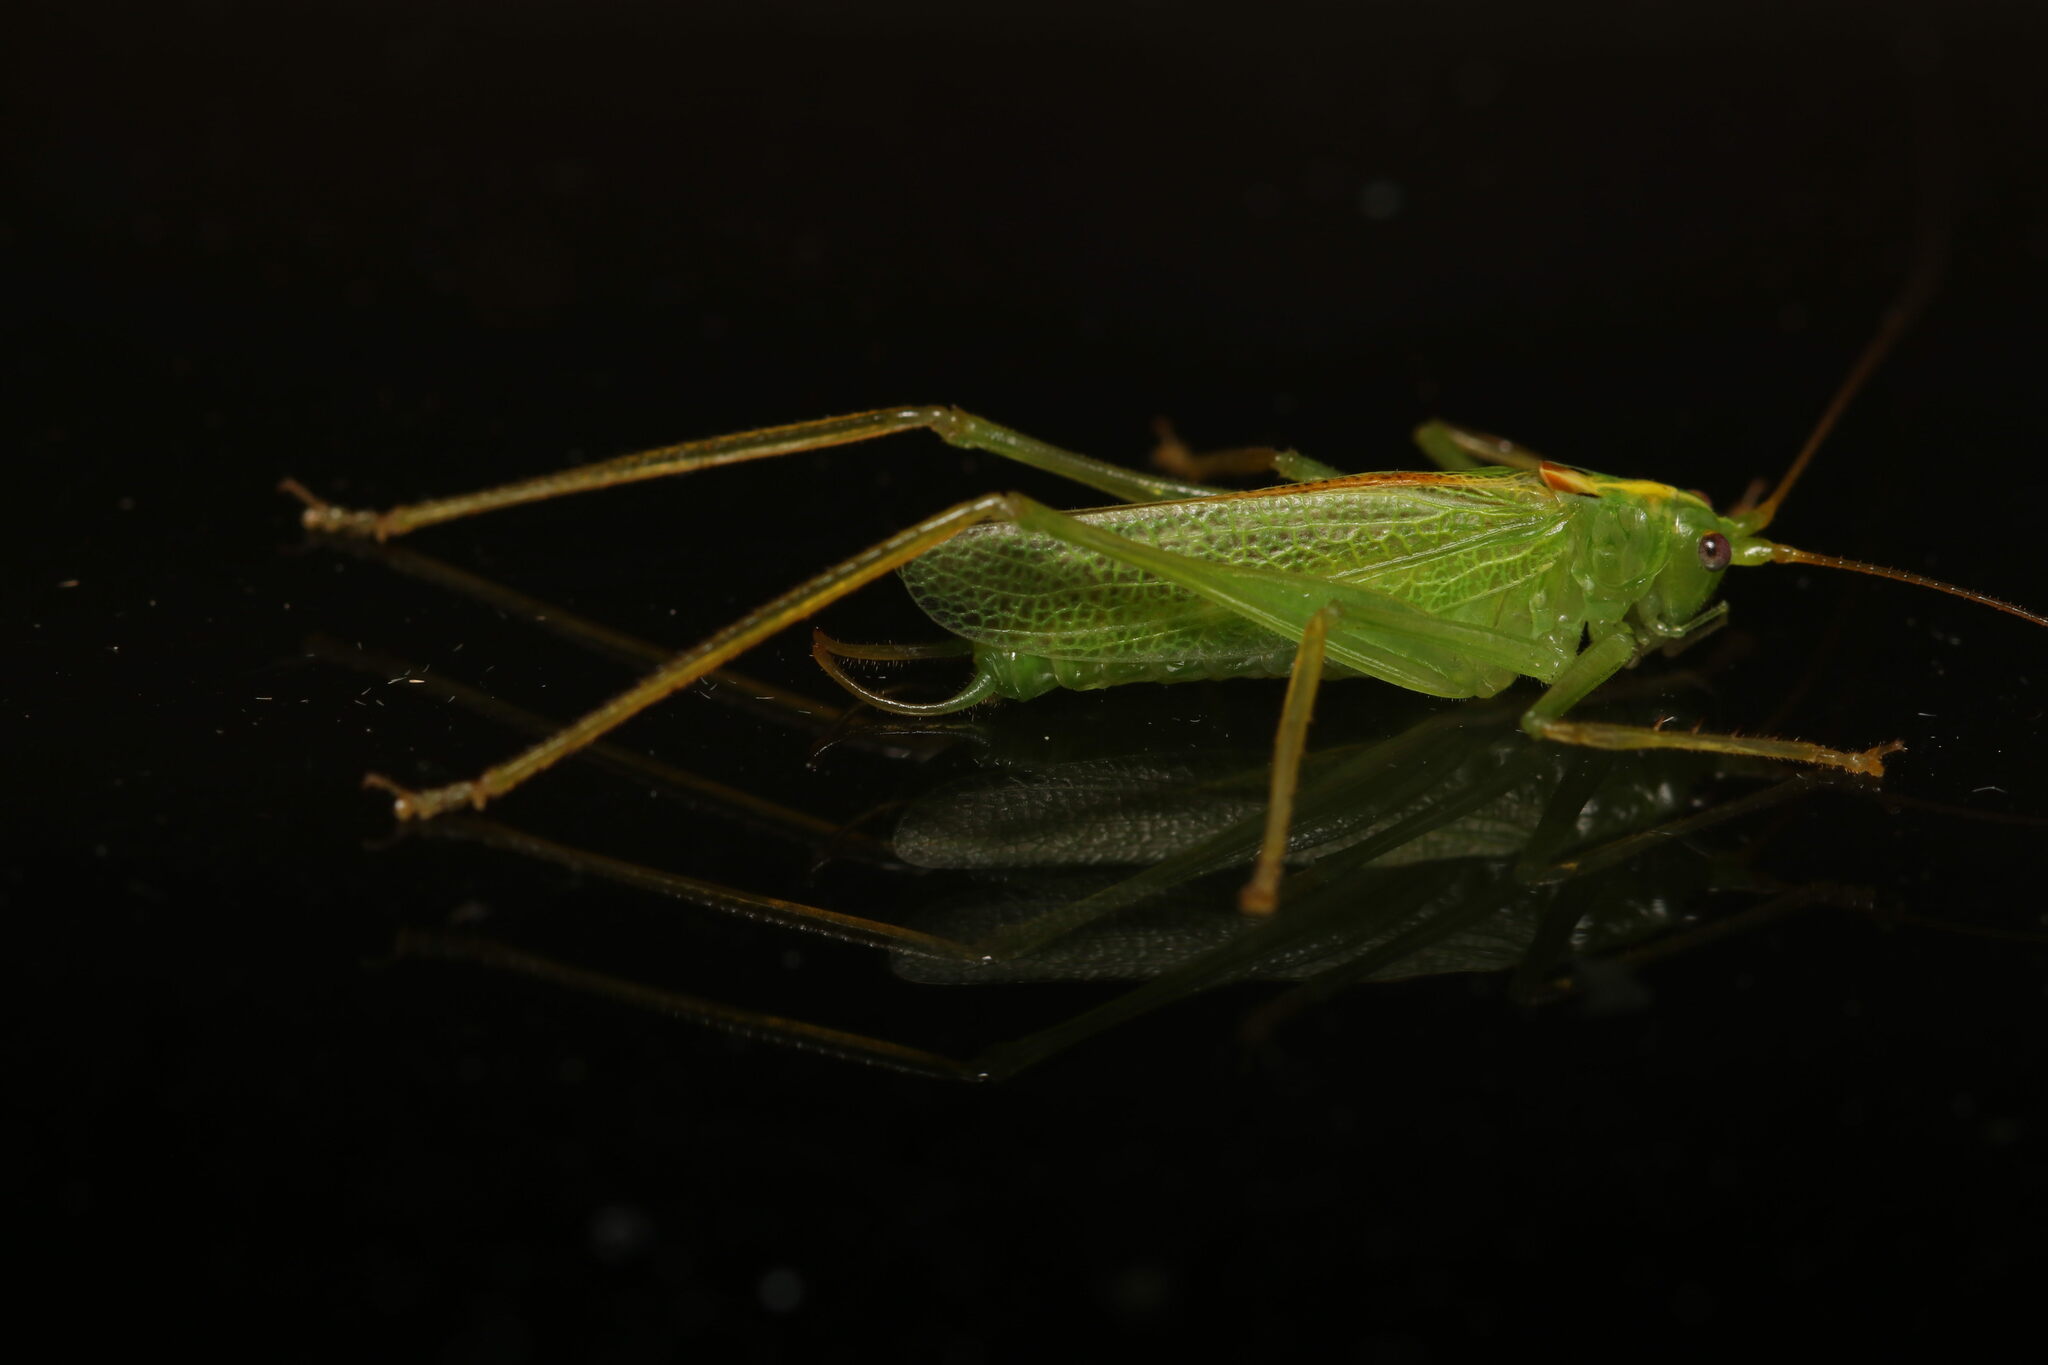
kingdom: Animalia
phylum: Arthropoda
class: Insecta
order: Orthoptera
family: Tettigoniidae
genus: Meconema
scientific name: Meconema thalassinum
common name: Oak bush-cricket
